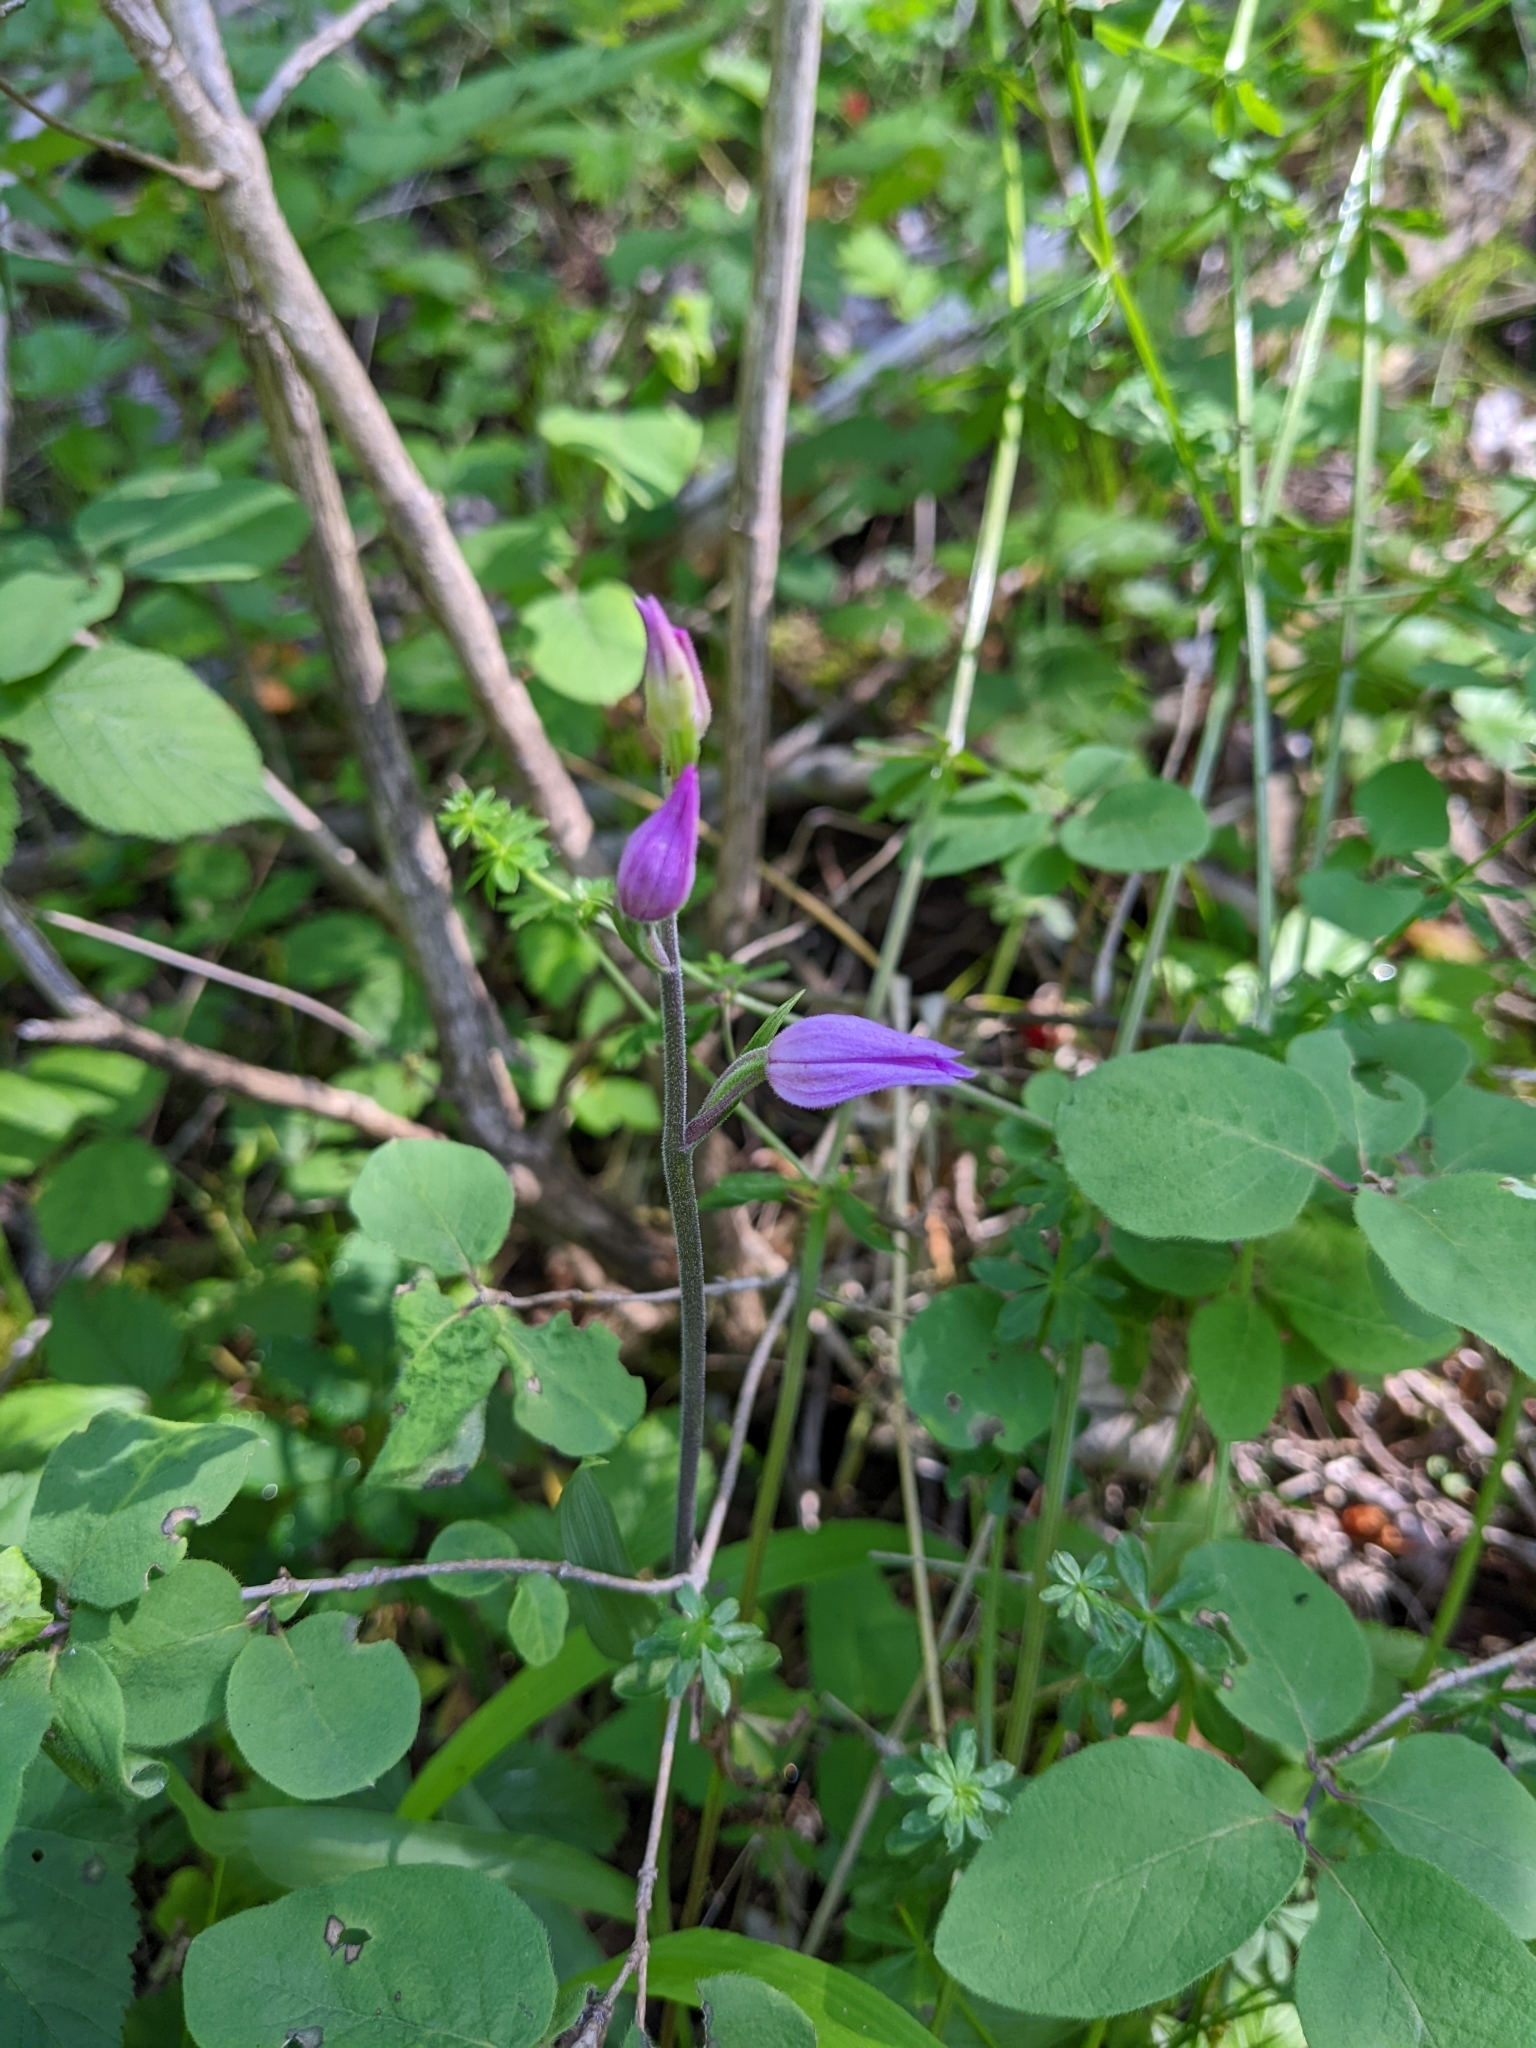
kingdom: Plantae
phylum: Tracheophyta
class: Liliopsida
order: Asparagales
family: Orchidaceae
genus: Cephalanthera
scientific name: Cephalanthera rubra
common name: Red helleborine
